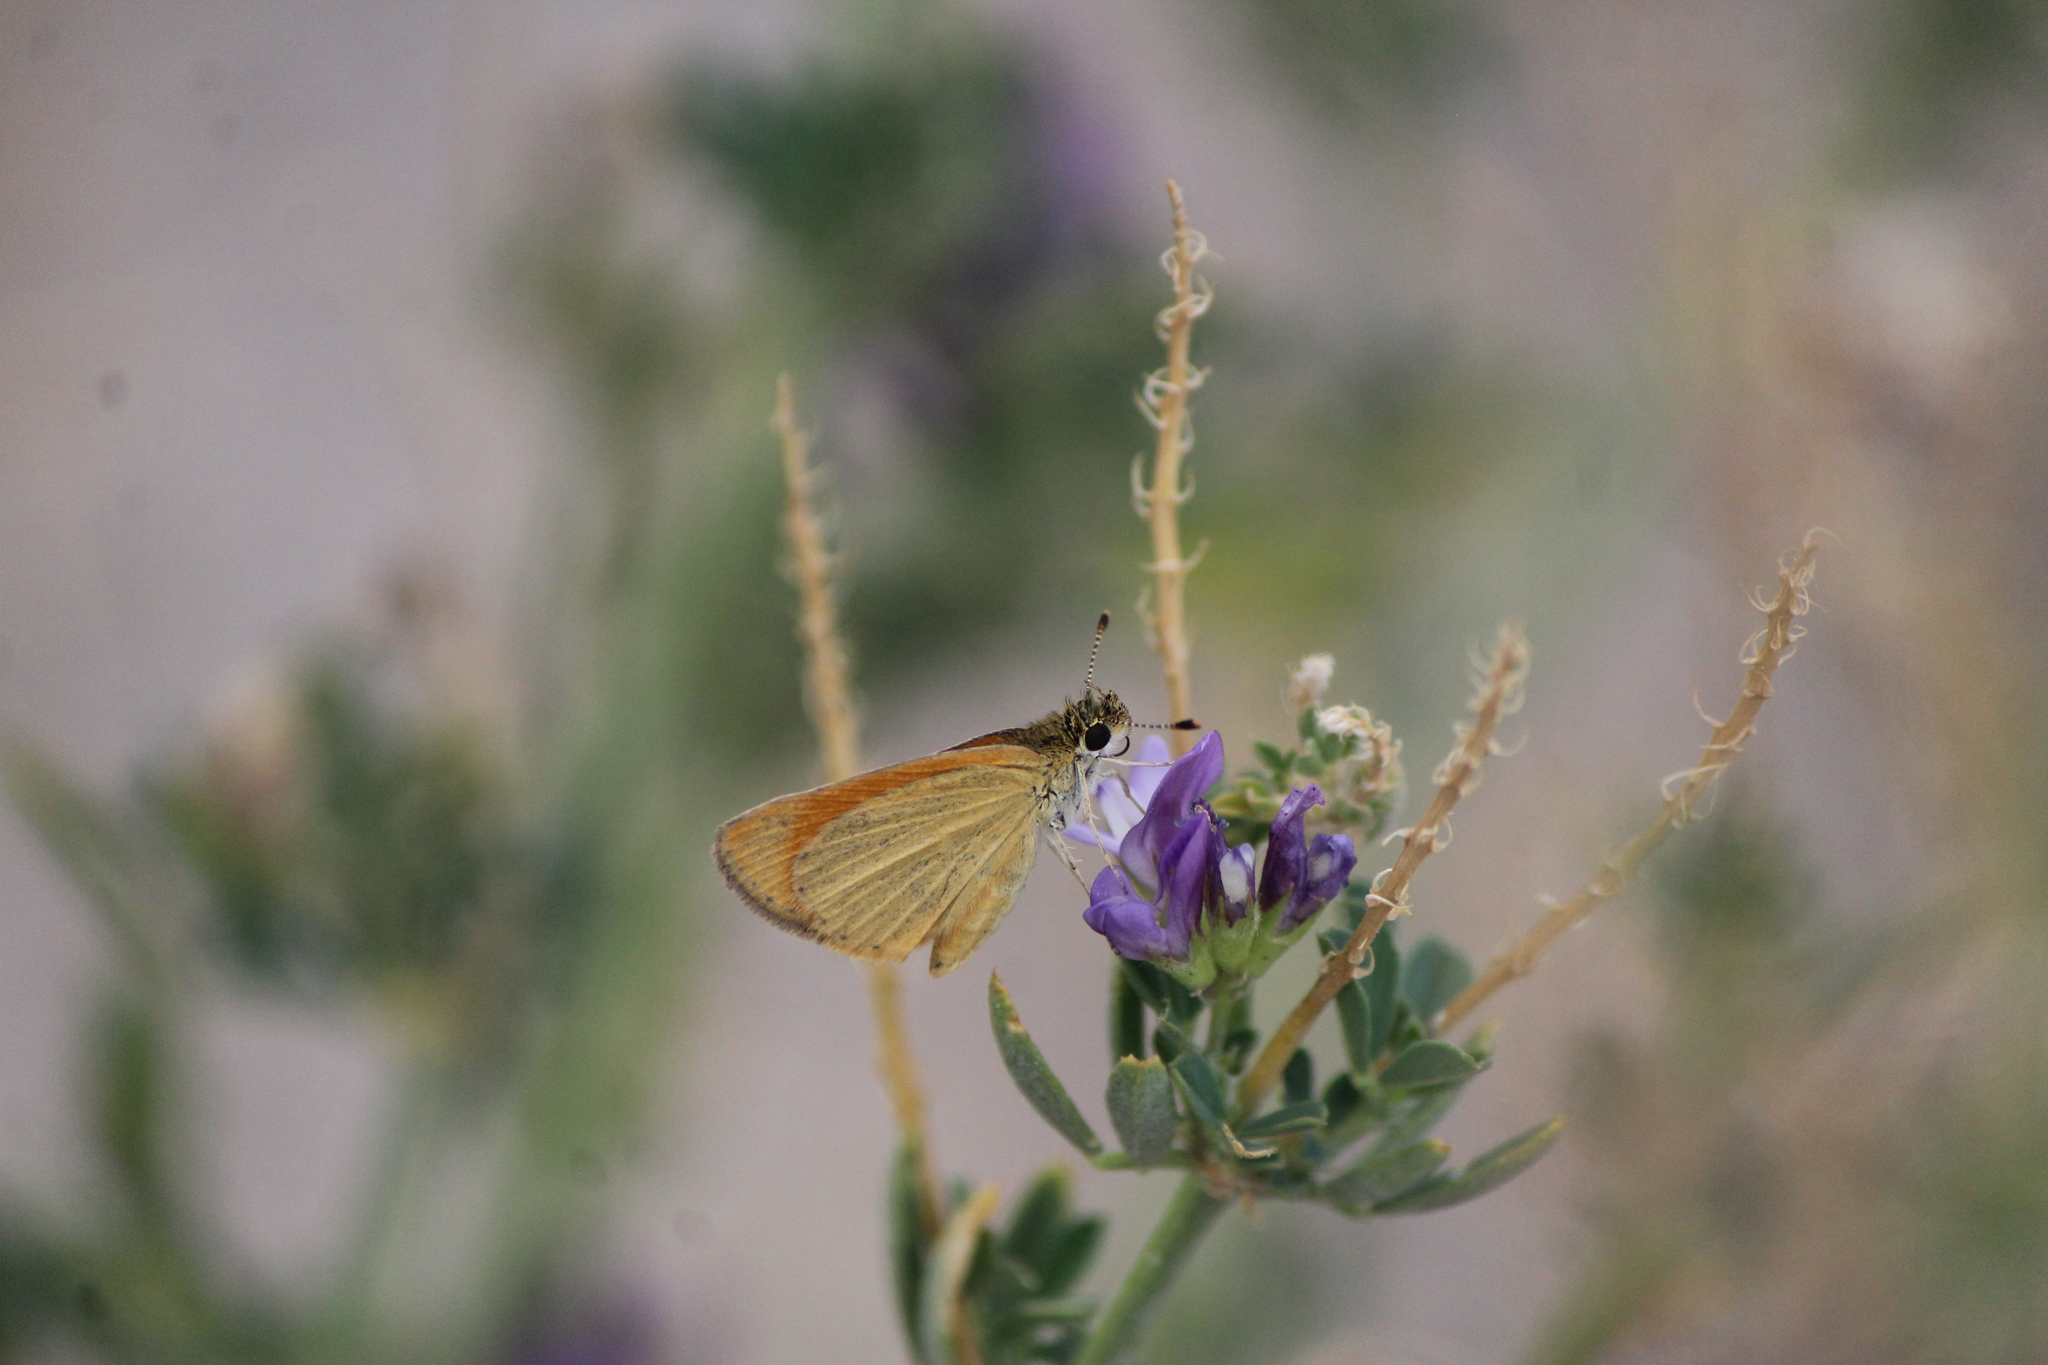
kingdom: Animalia
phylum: Arthropoda
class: Insecta
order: Lepidoptera
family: Hesperiidae
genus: Ancyloxypha
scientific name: Ancyloxypha arene
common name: Tropical least skipper
